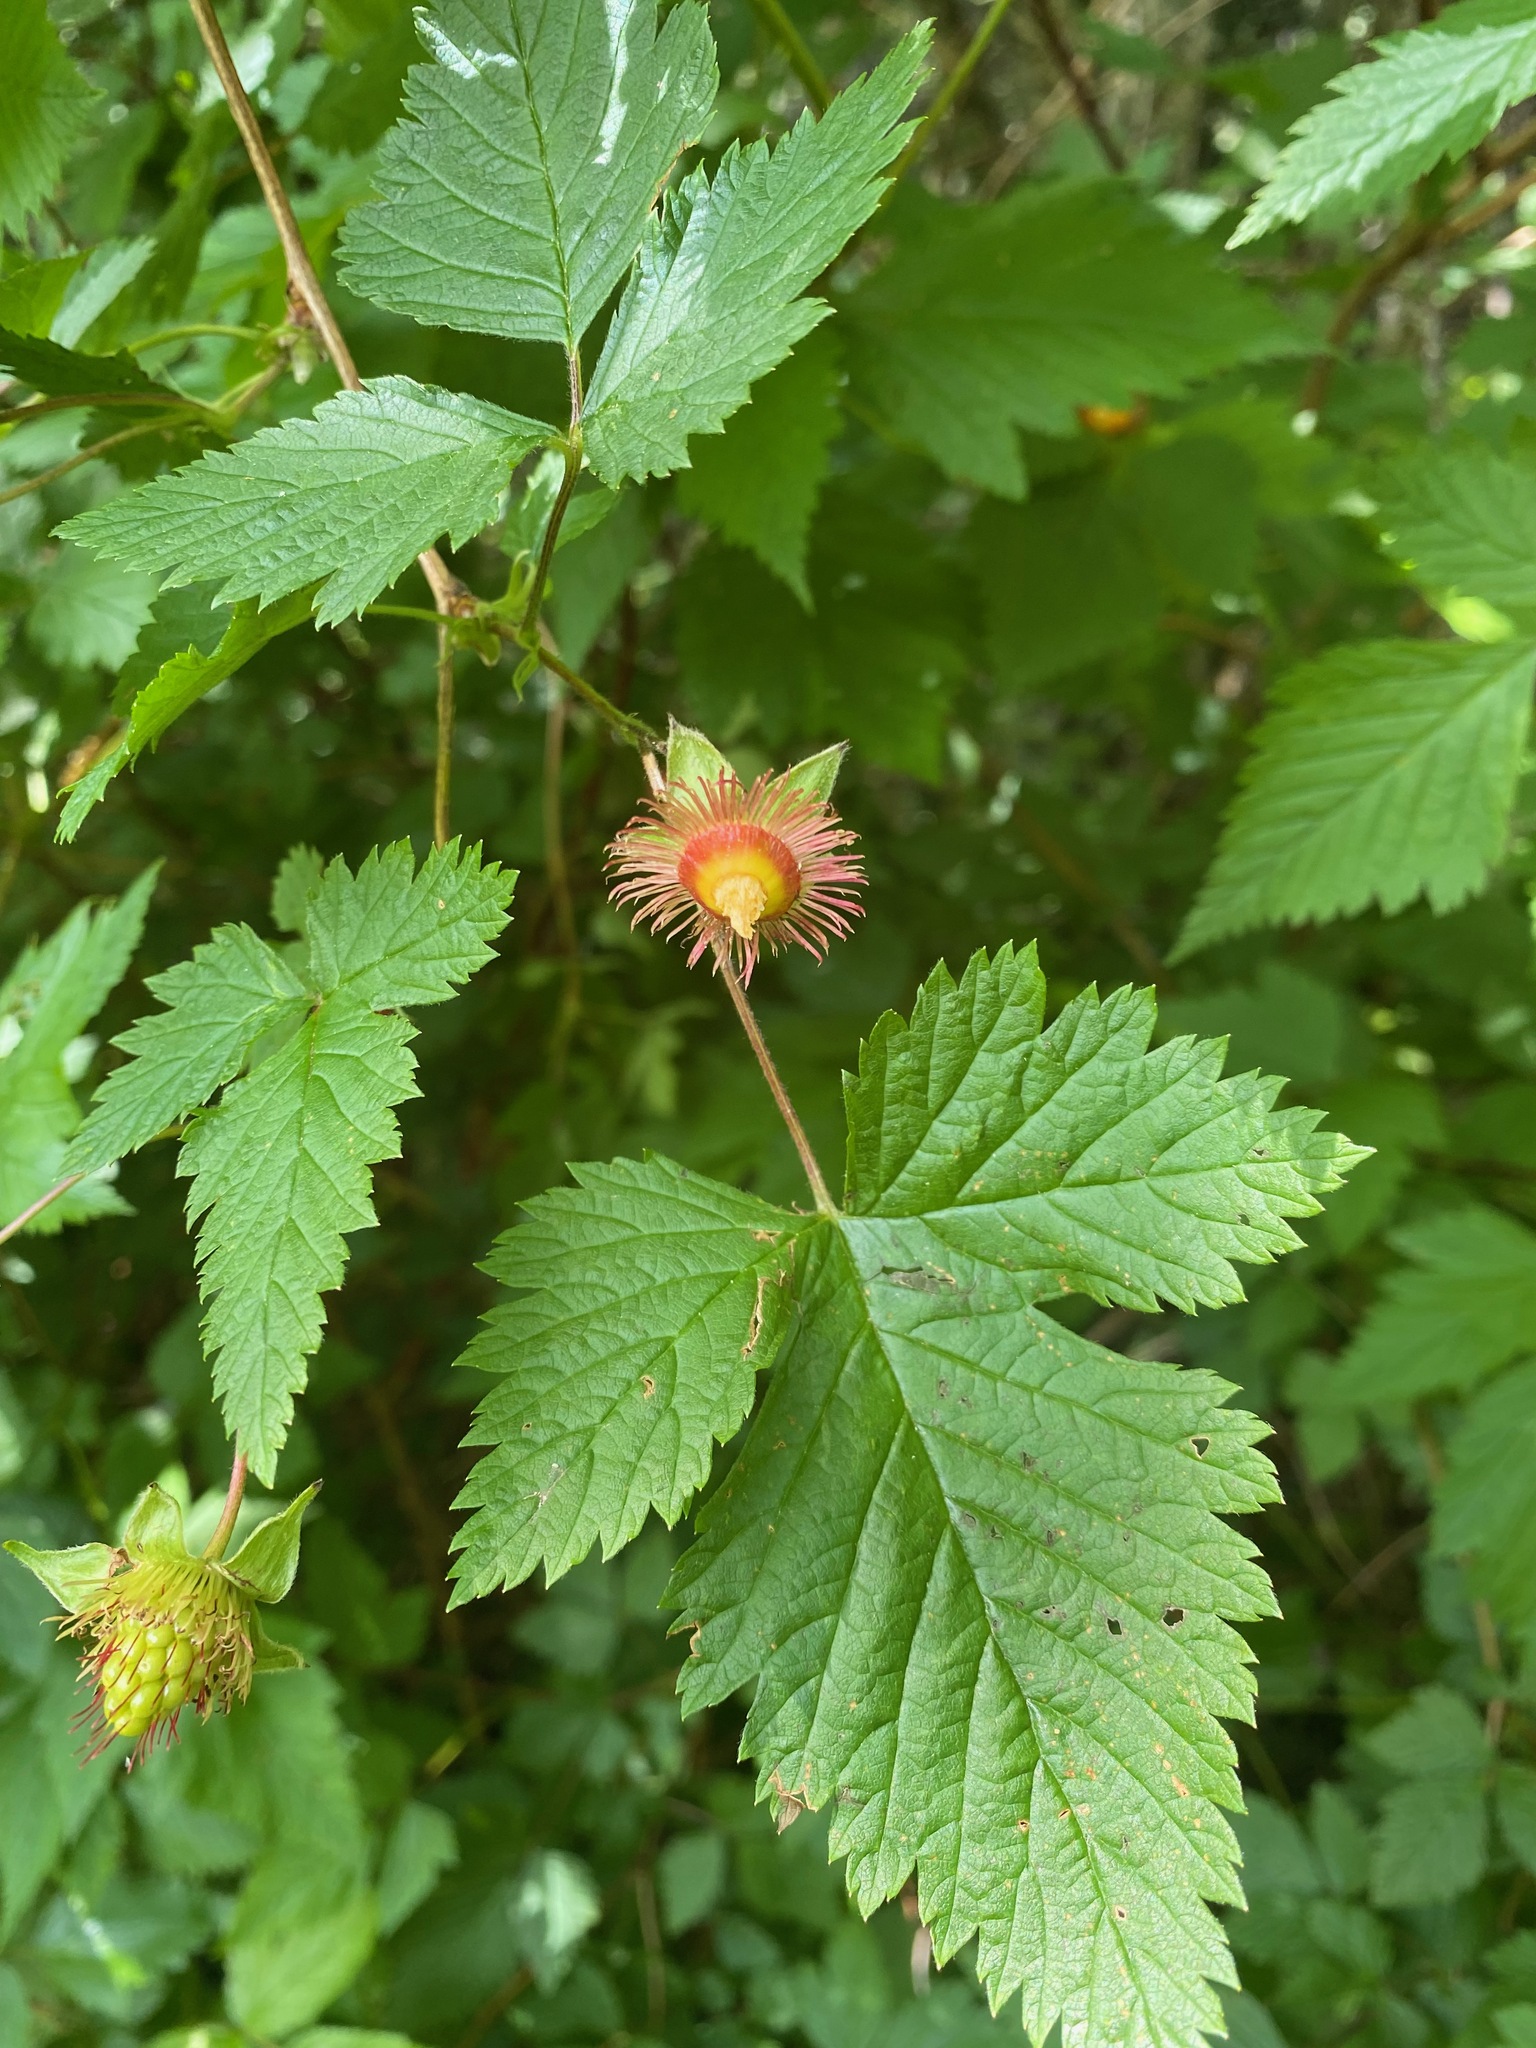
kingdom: Plantae
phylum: Tracheophyta
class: Magnoliopsida
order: Rosales
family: Rosaceae
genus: Rubus
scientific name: Rubus spectabilis
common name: Salmonberry
